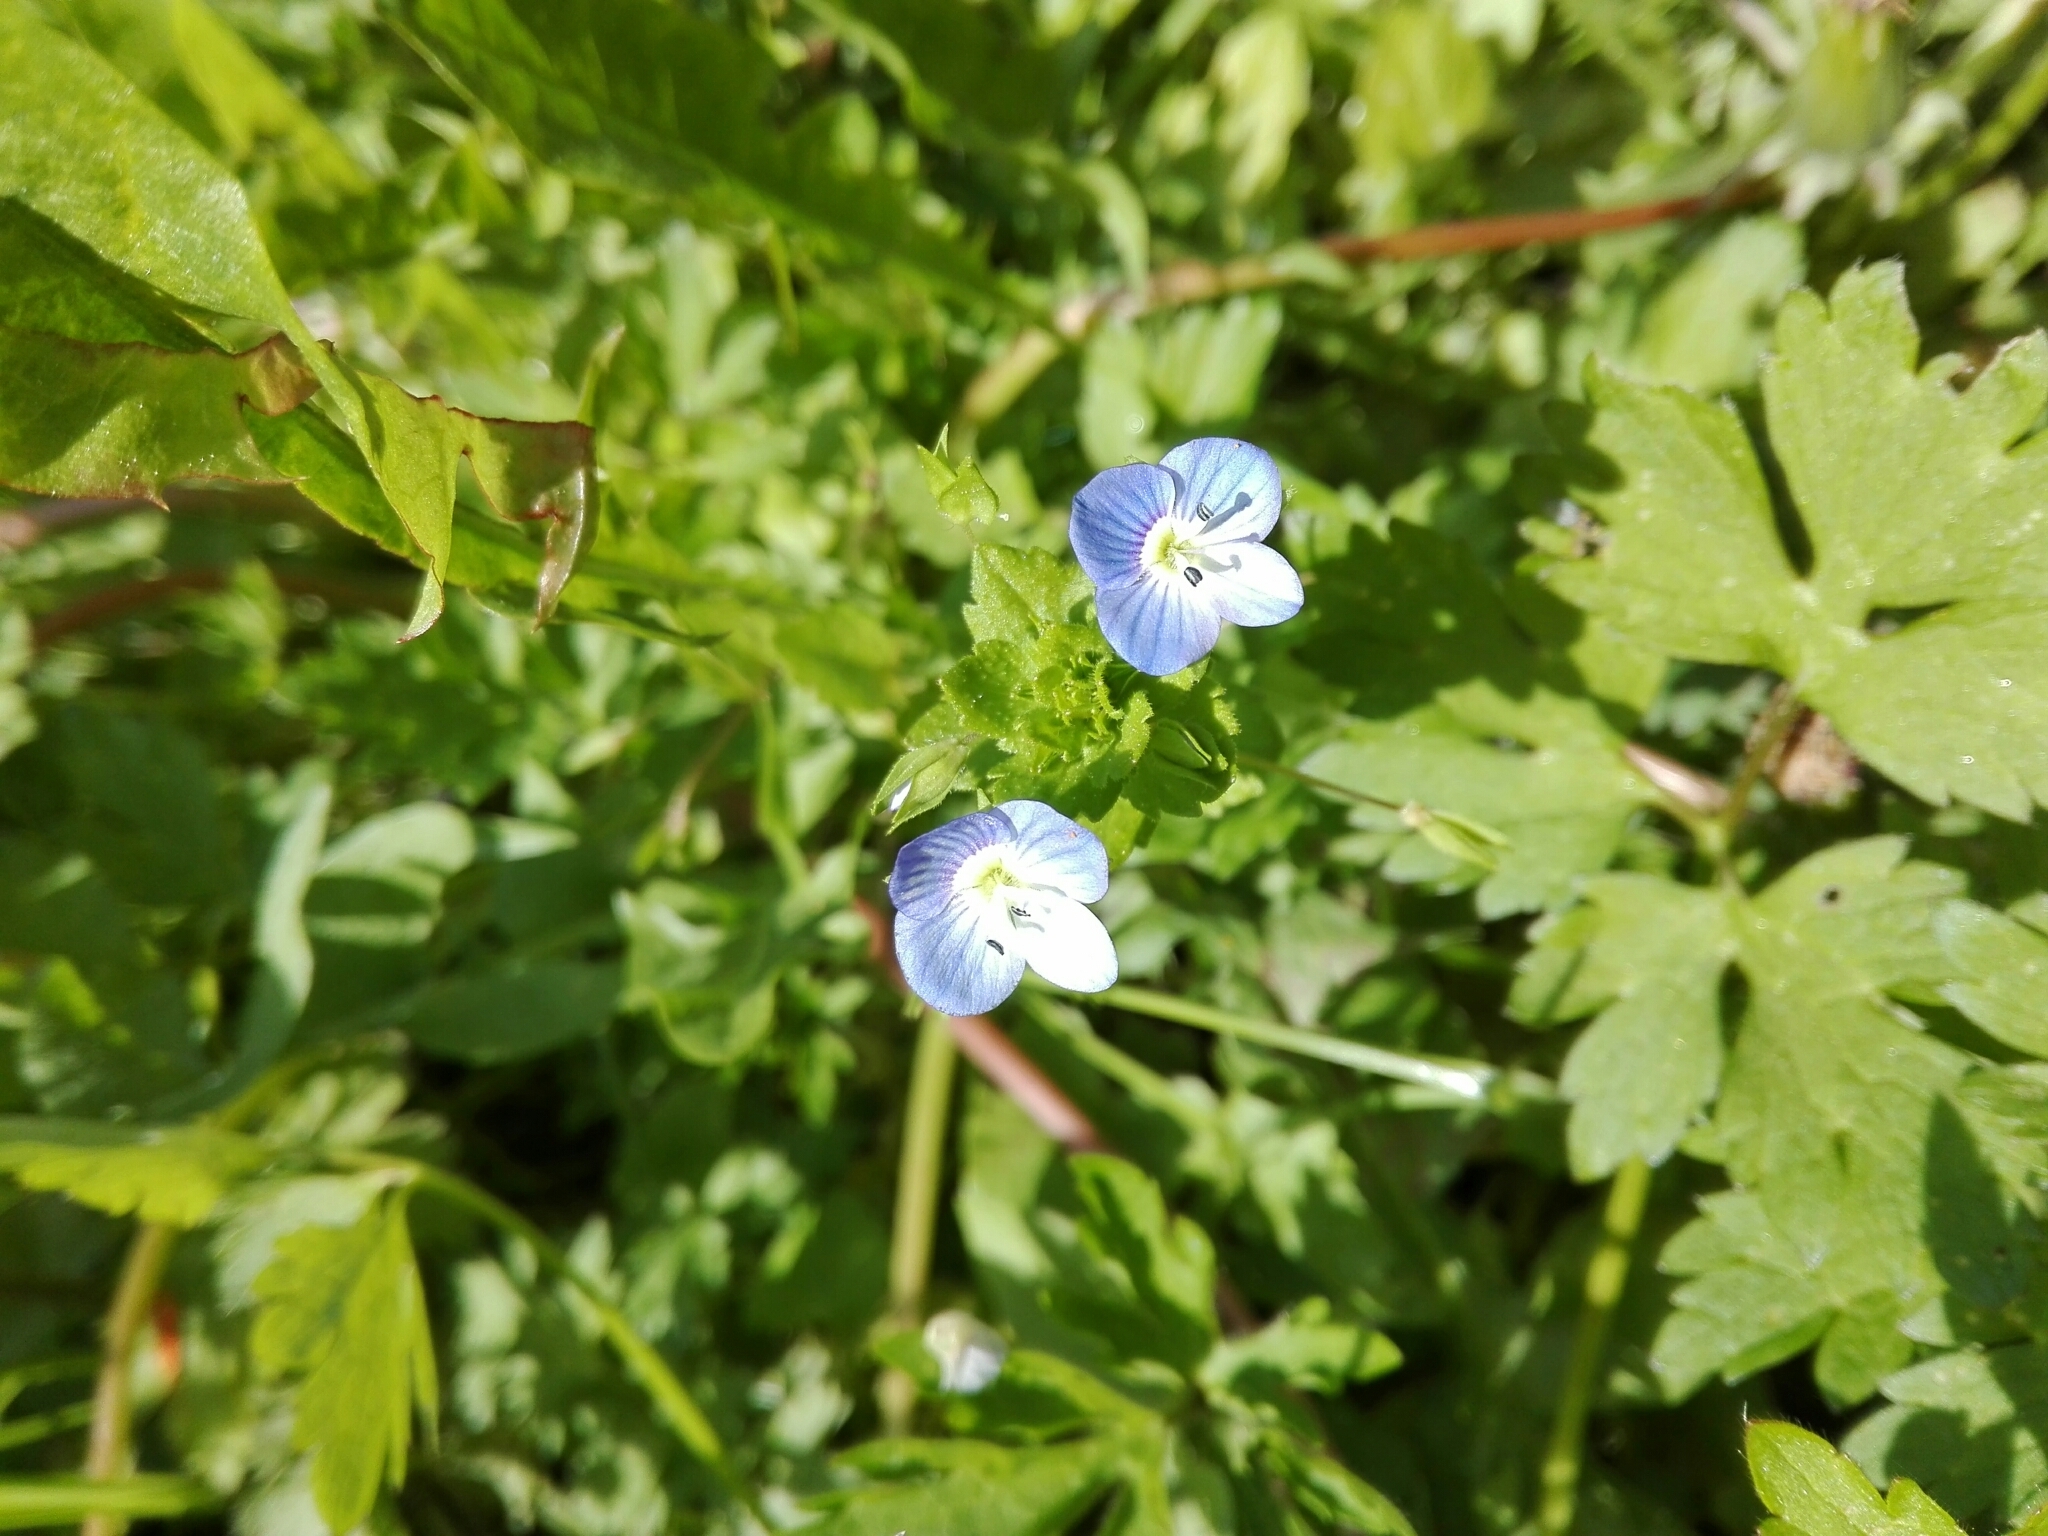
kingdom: Plantae
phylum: Tracheophyta
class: Magnoliopsida
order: Lamiales
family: Plantaginaceae
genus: Veronica
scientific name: Veronica persica
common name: Common field-speedwell
